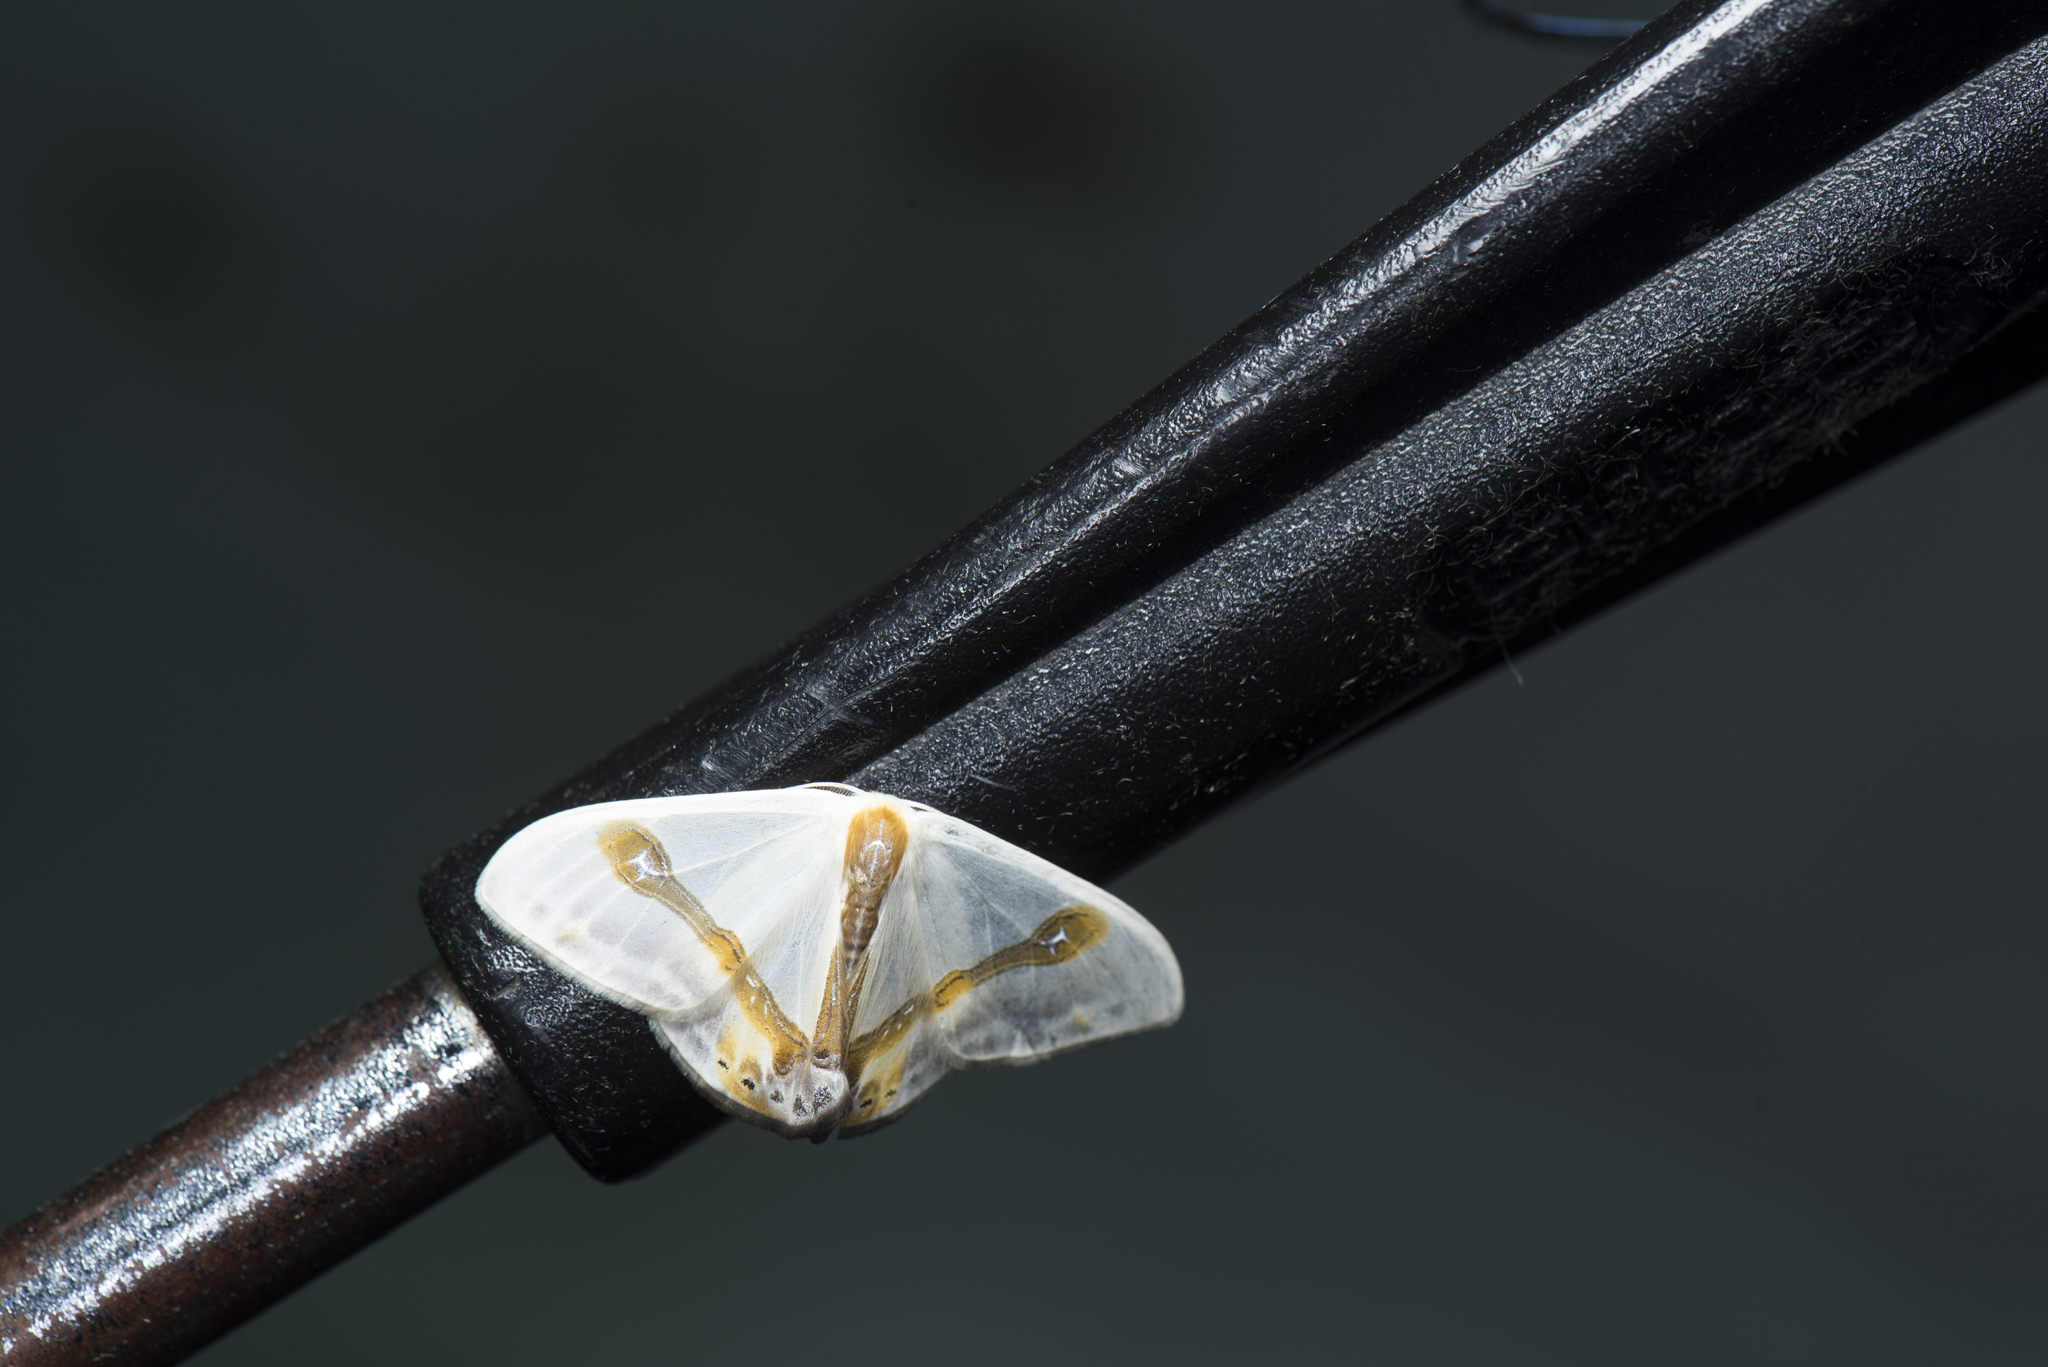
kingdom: Animalia
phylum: Arthropoda
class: Insecta
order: Lepidoptera
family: Drepanidae
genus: Macrocilix
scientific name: Macrocilix mysticata
